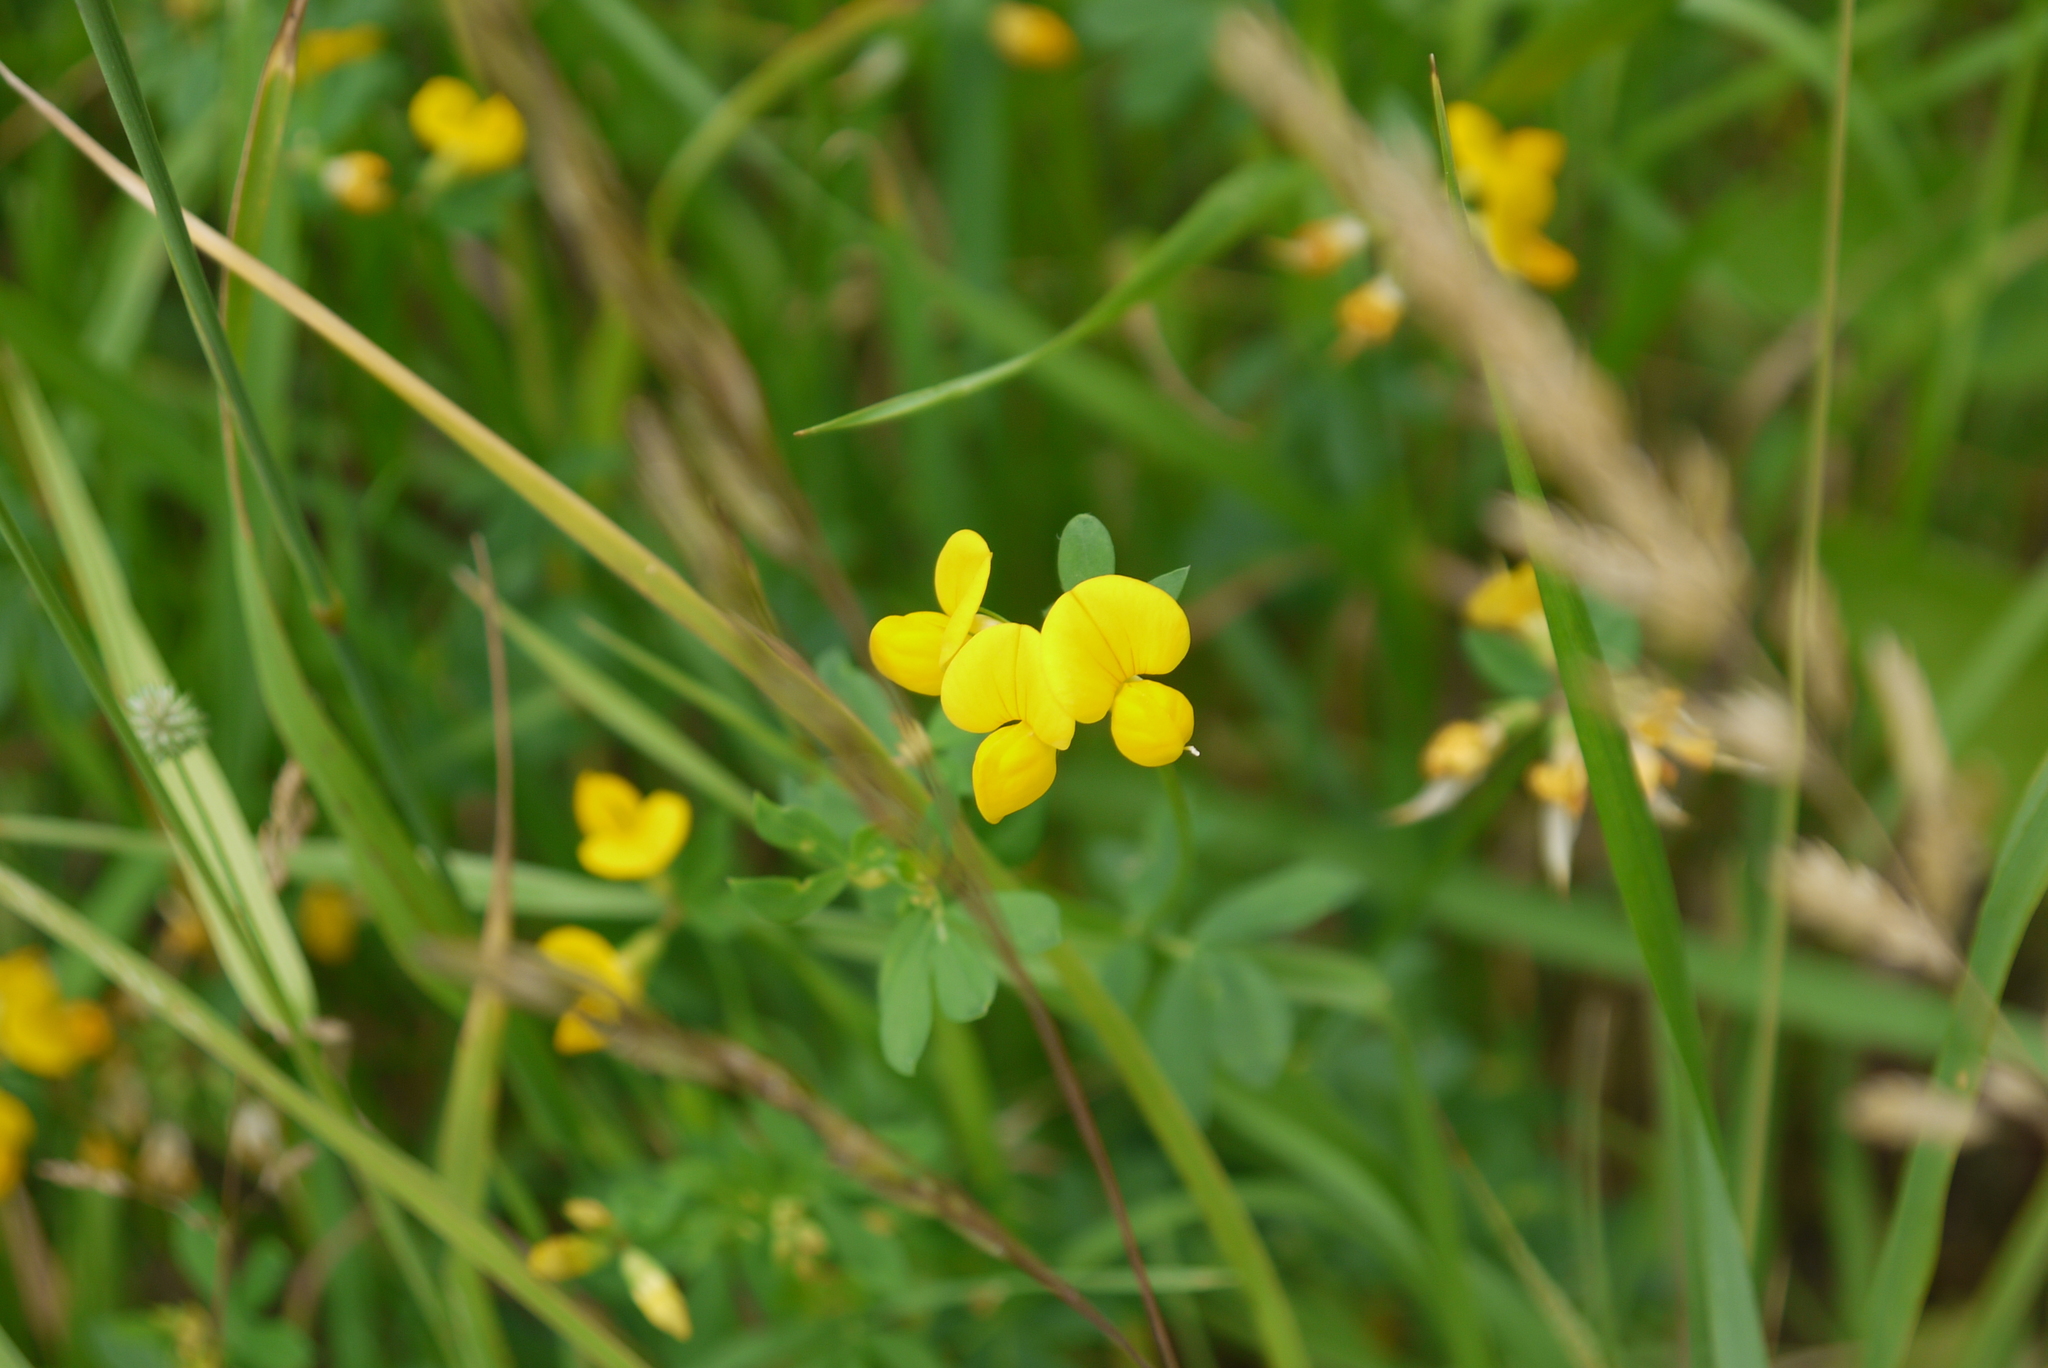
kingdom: Plantae
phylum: Tracheophyta
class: Magnoliopsida
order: Fabales
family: Fabaceae
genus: Lotus
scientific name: Lotus corniculatus
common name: Common bird's-foot-trefoil
